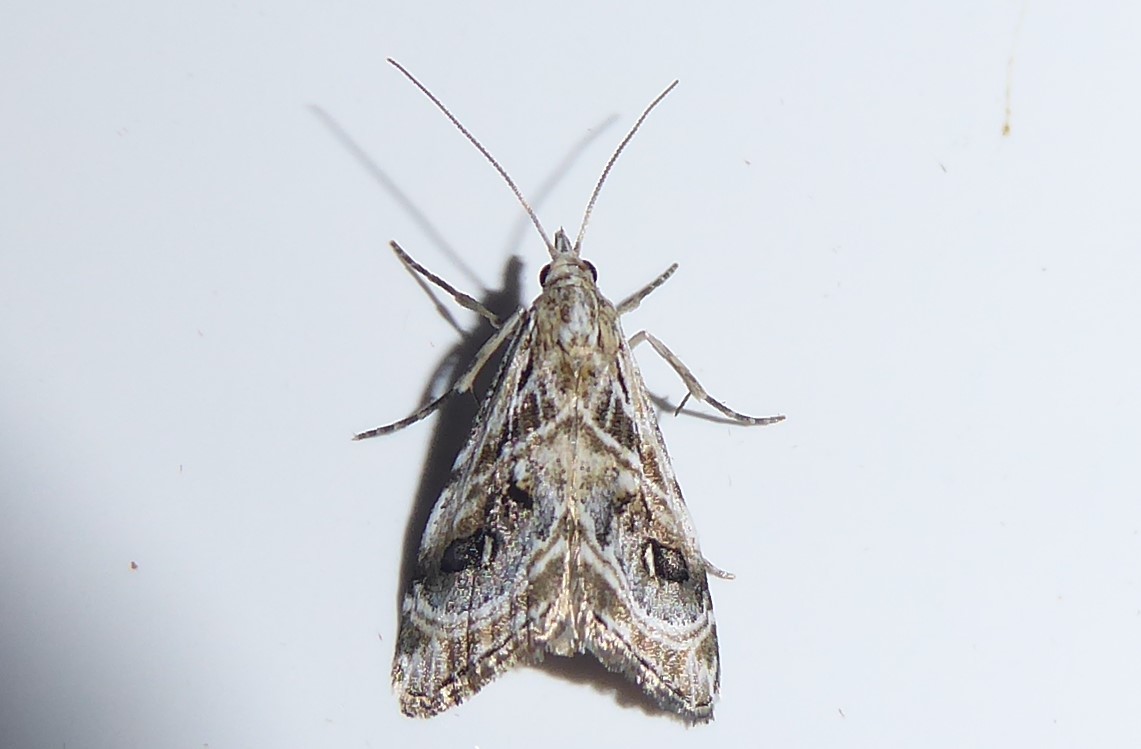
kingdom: Animalia
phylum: Arthropoda
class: Insecta
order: Lepidoptera
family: Crambidae
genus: Gadira
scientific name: Gadira acerella
